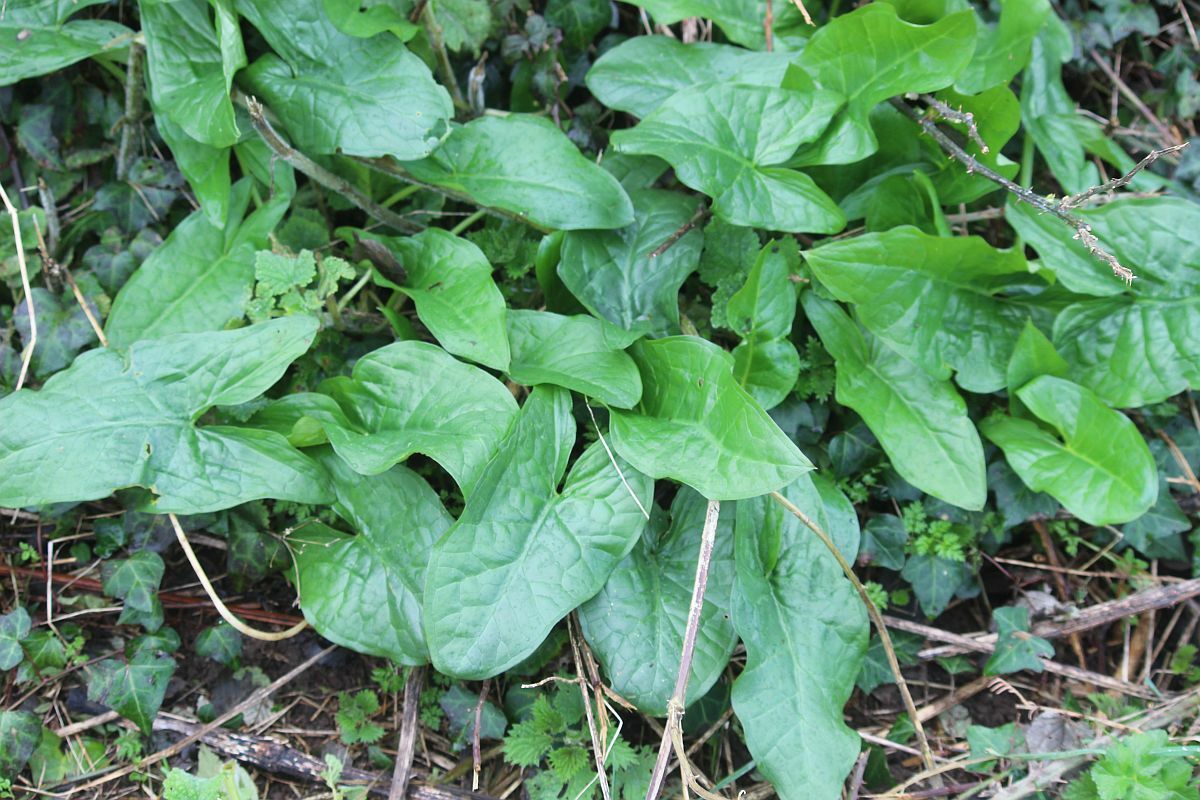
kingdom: Plantae
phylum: Tracheophyta
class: Liliopsida
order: Alismatales
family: Araceae
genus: Arum
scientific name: Arum maculatum
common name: Lords-and-ladies
